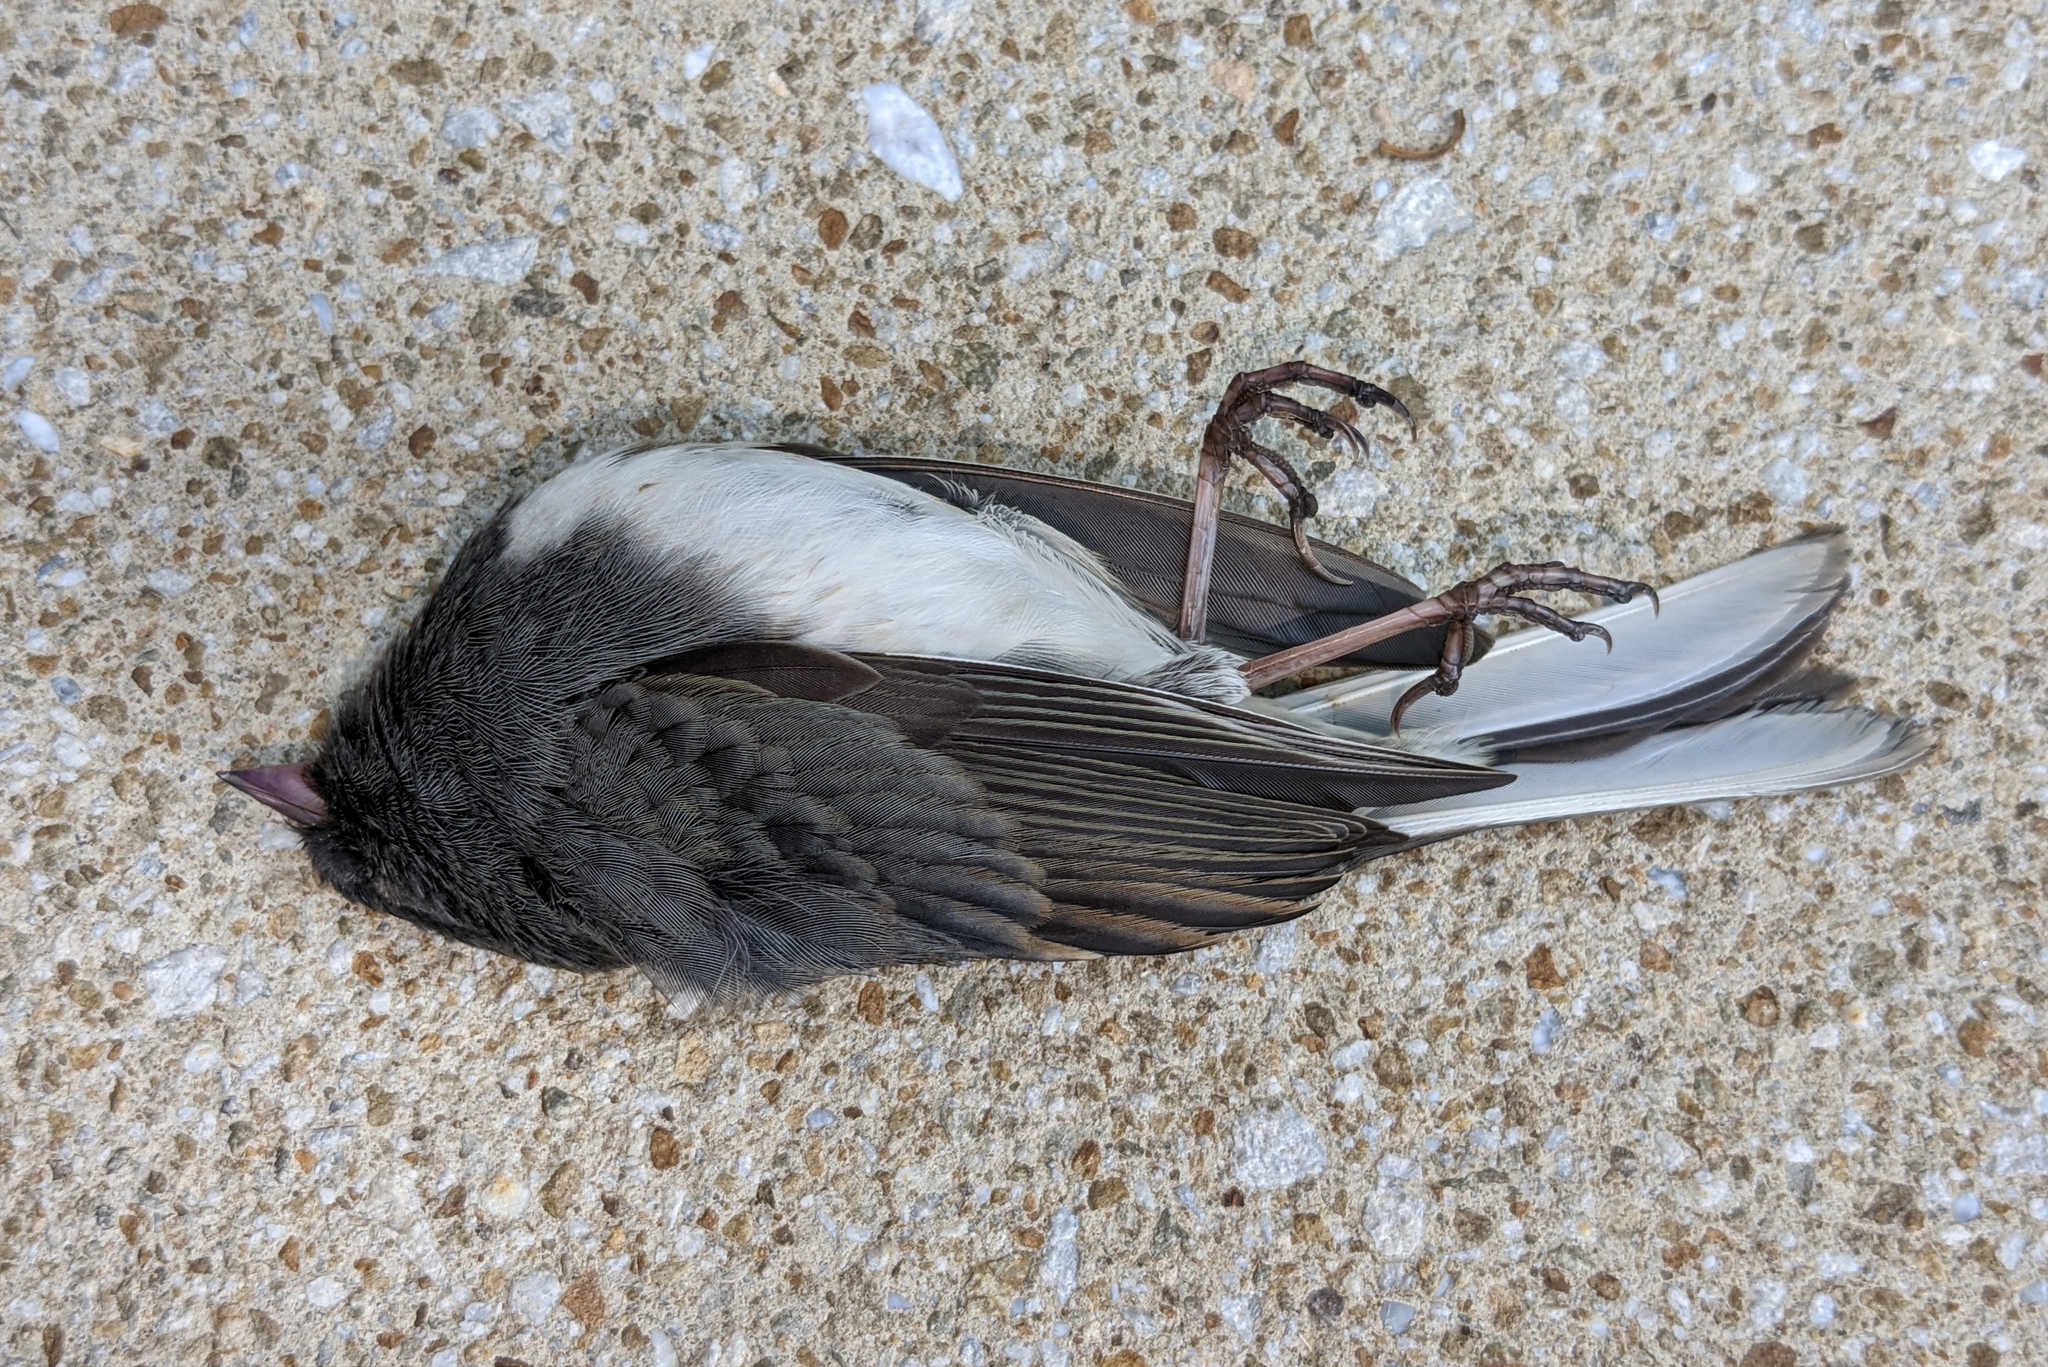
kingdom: Animalia
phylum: Chordata
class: Aves
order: Passeriformes
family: Passerellidae
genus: Junco
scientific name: Junco hyemalis
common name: Dark-eyed junco
